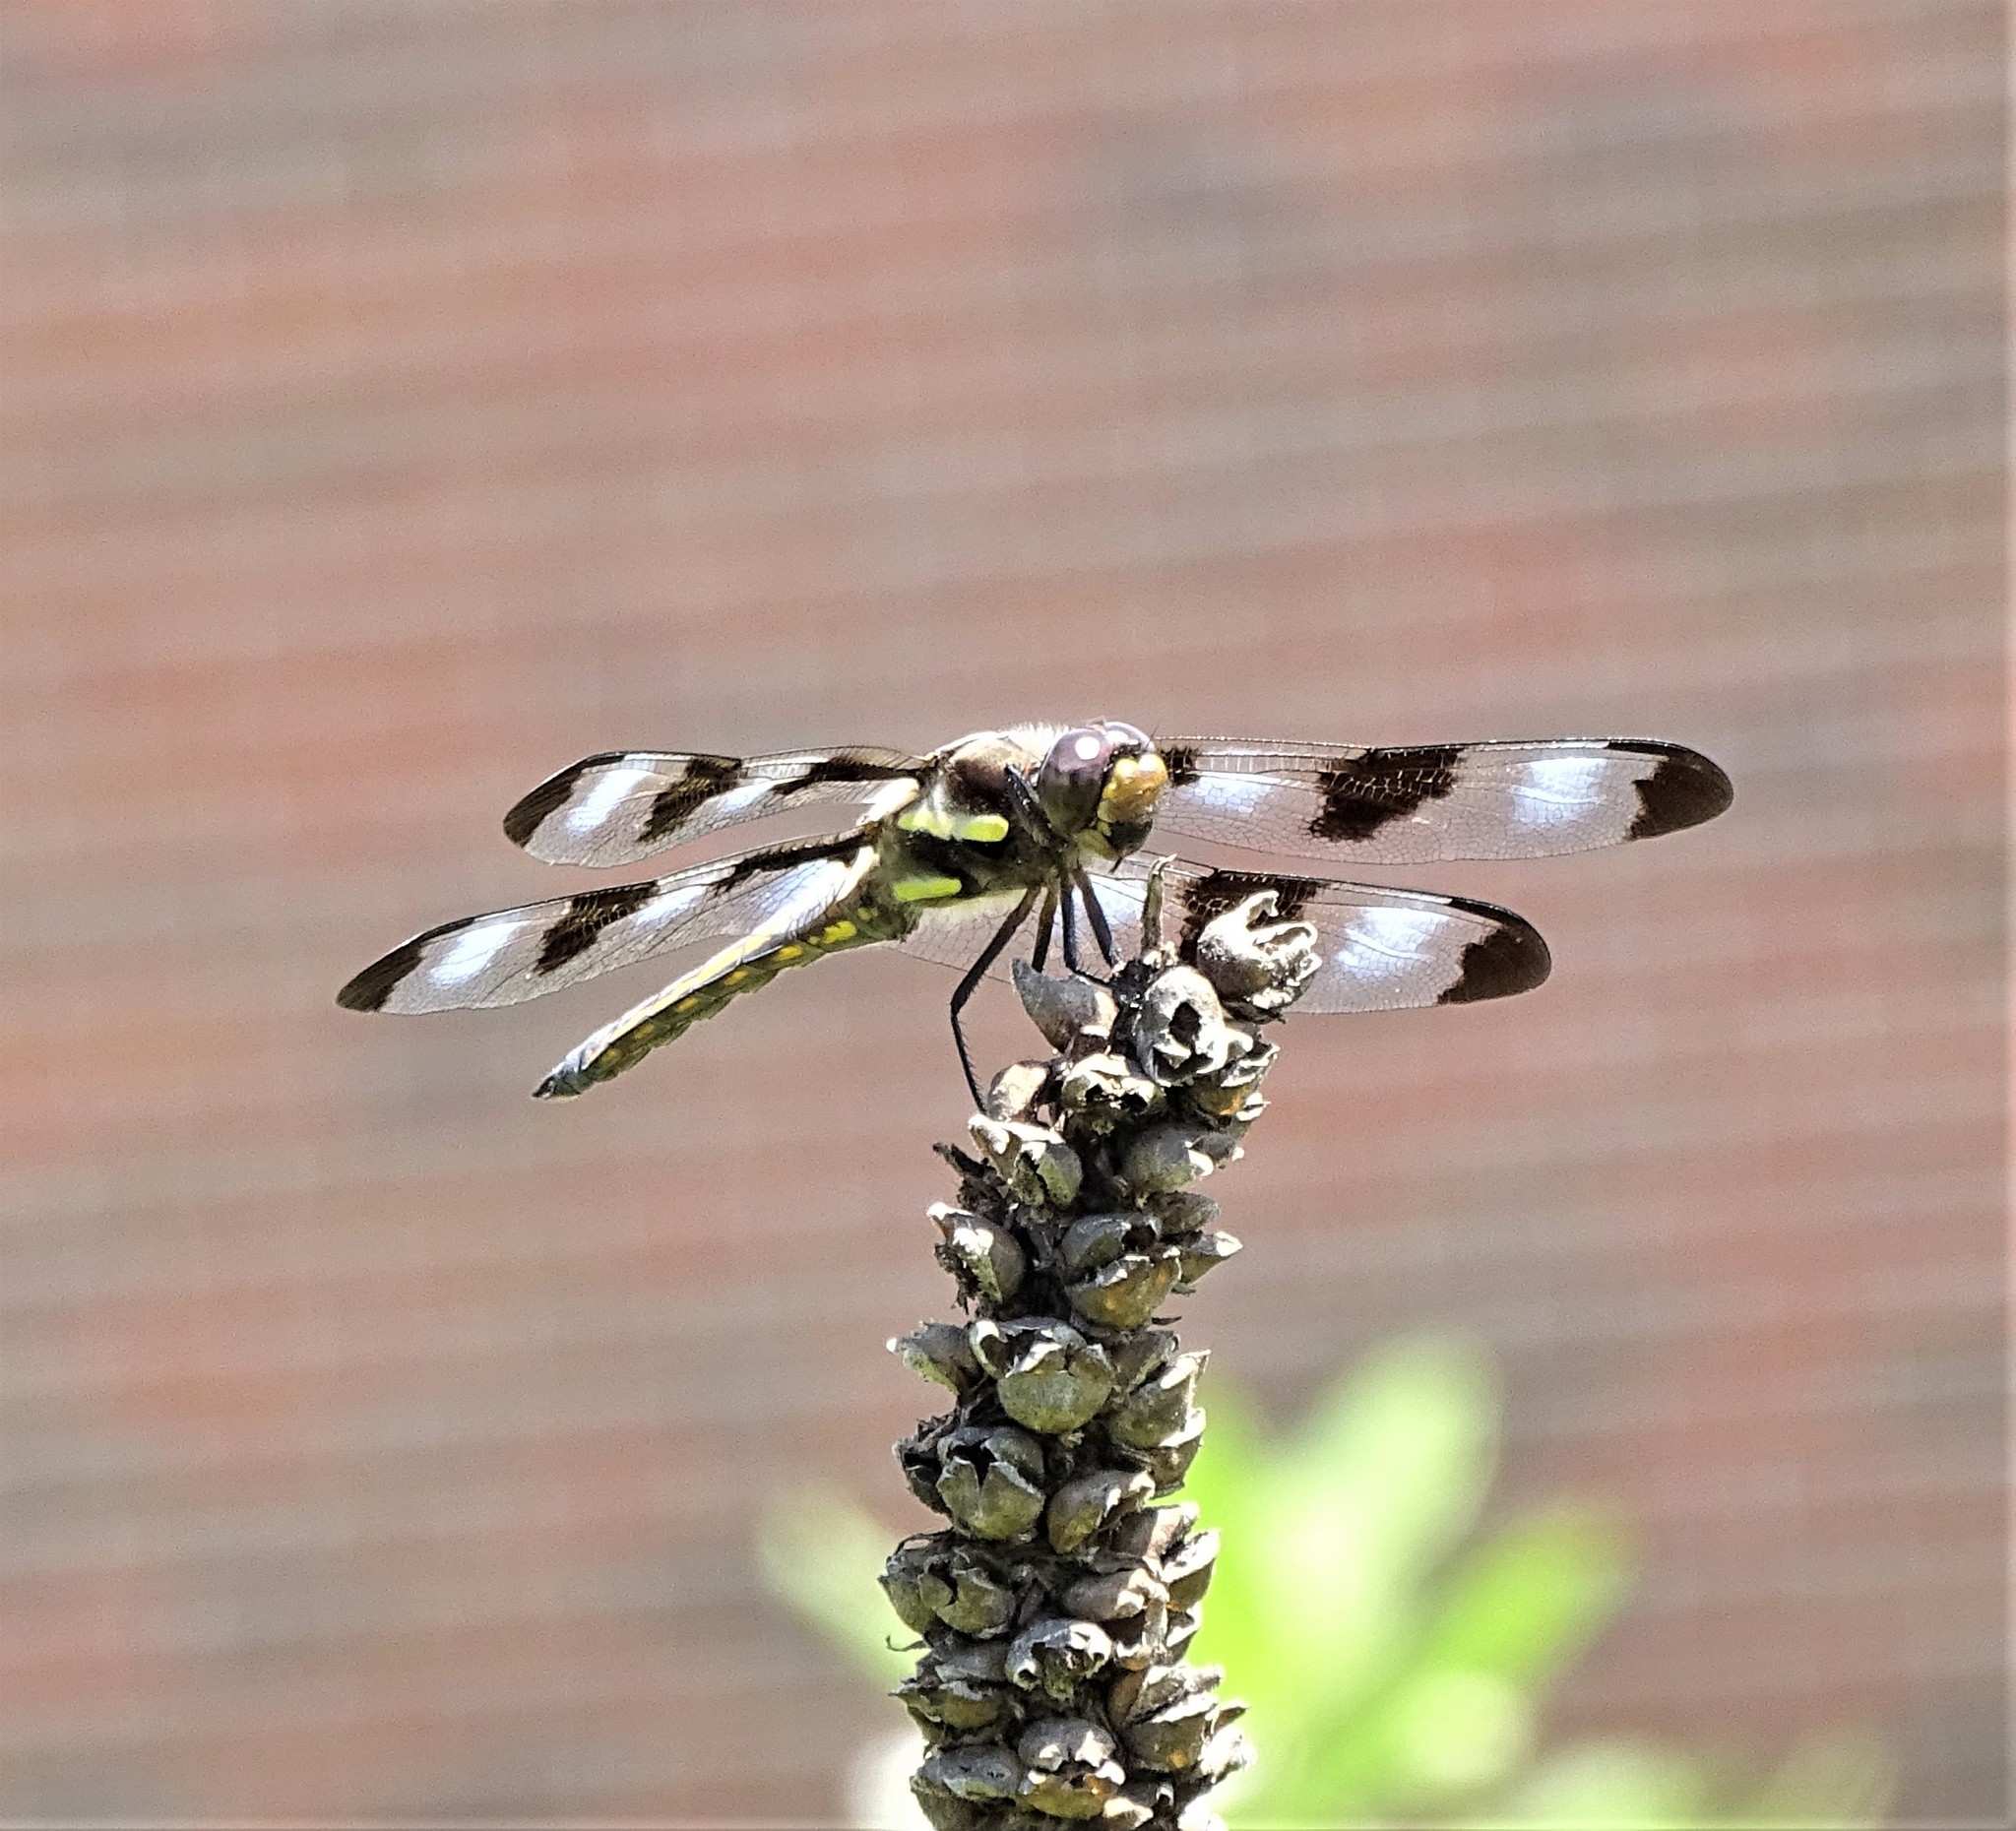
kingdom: Animalia
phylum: Arthropoda
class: Insecta
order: Odonata
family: Libellulidae
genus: Libellula
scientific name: Libellula pulchella
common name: Twelve-spotted skimmer
